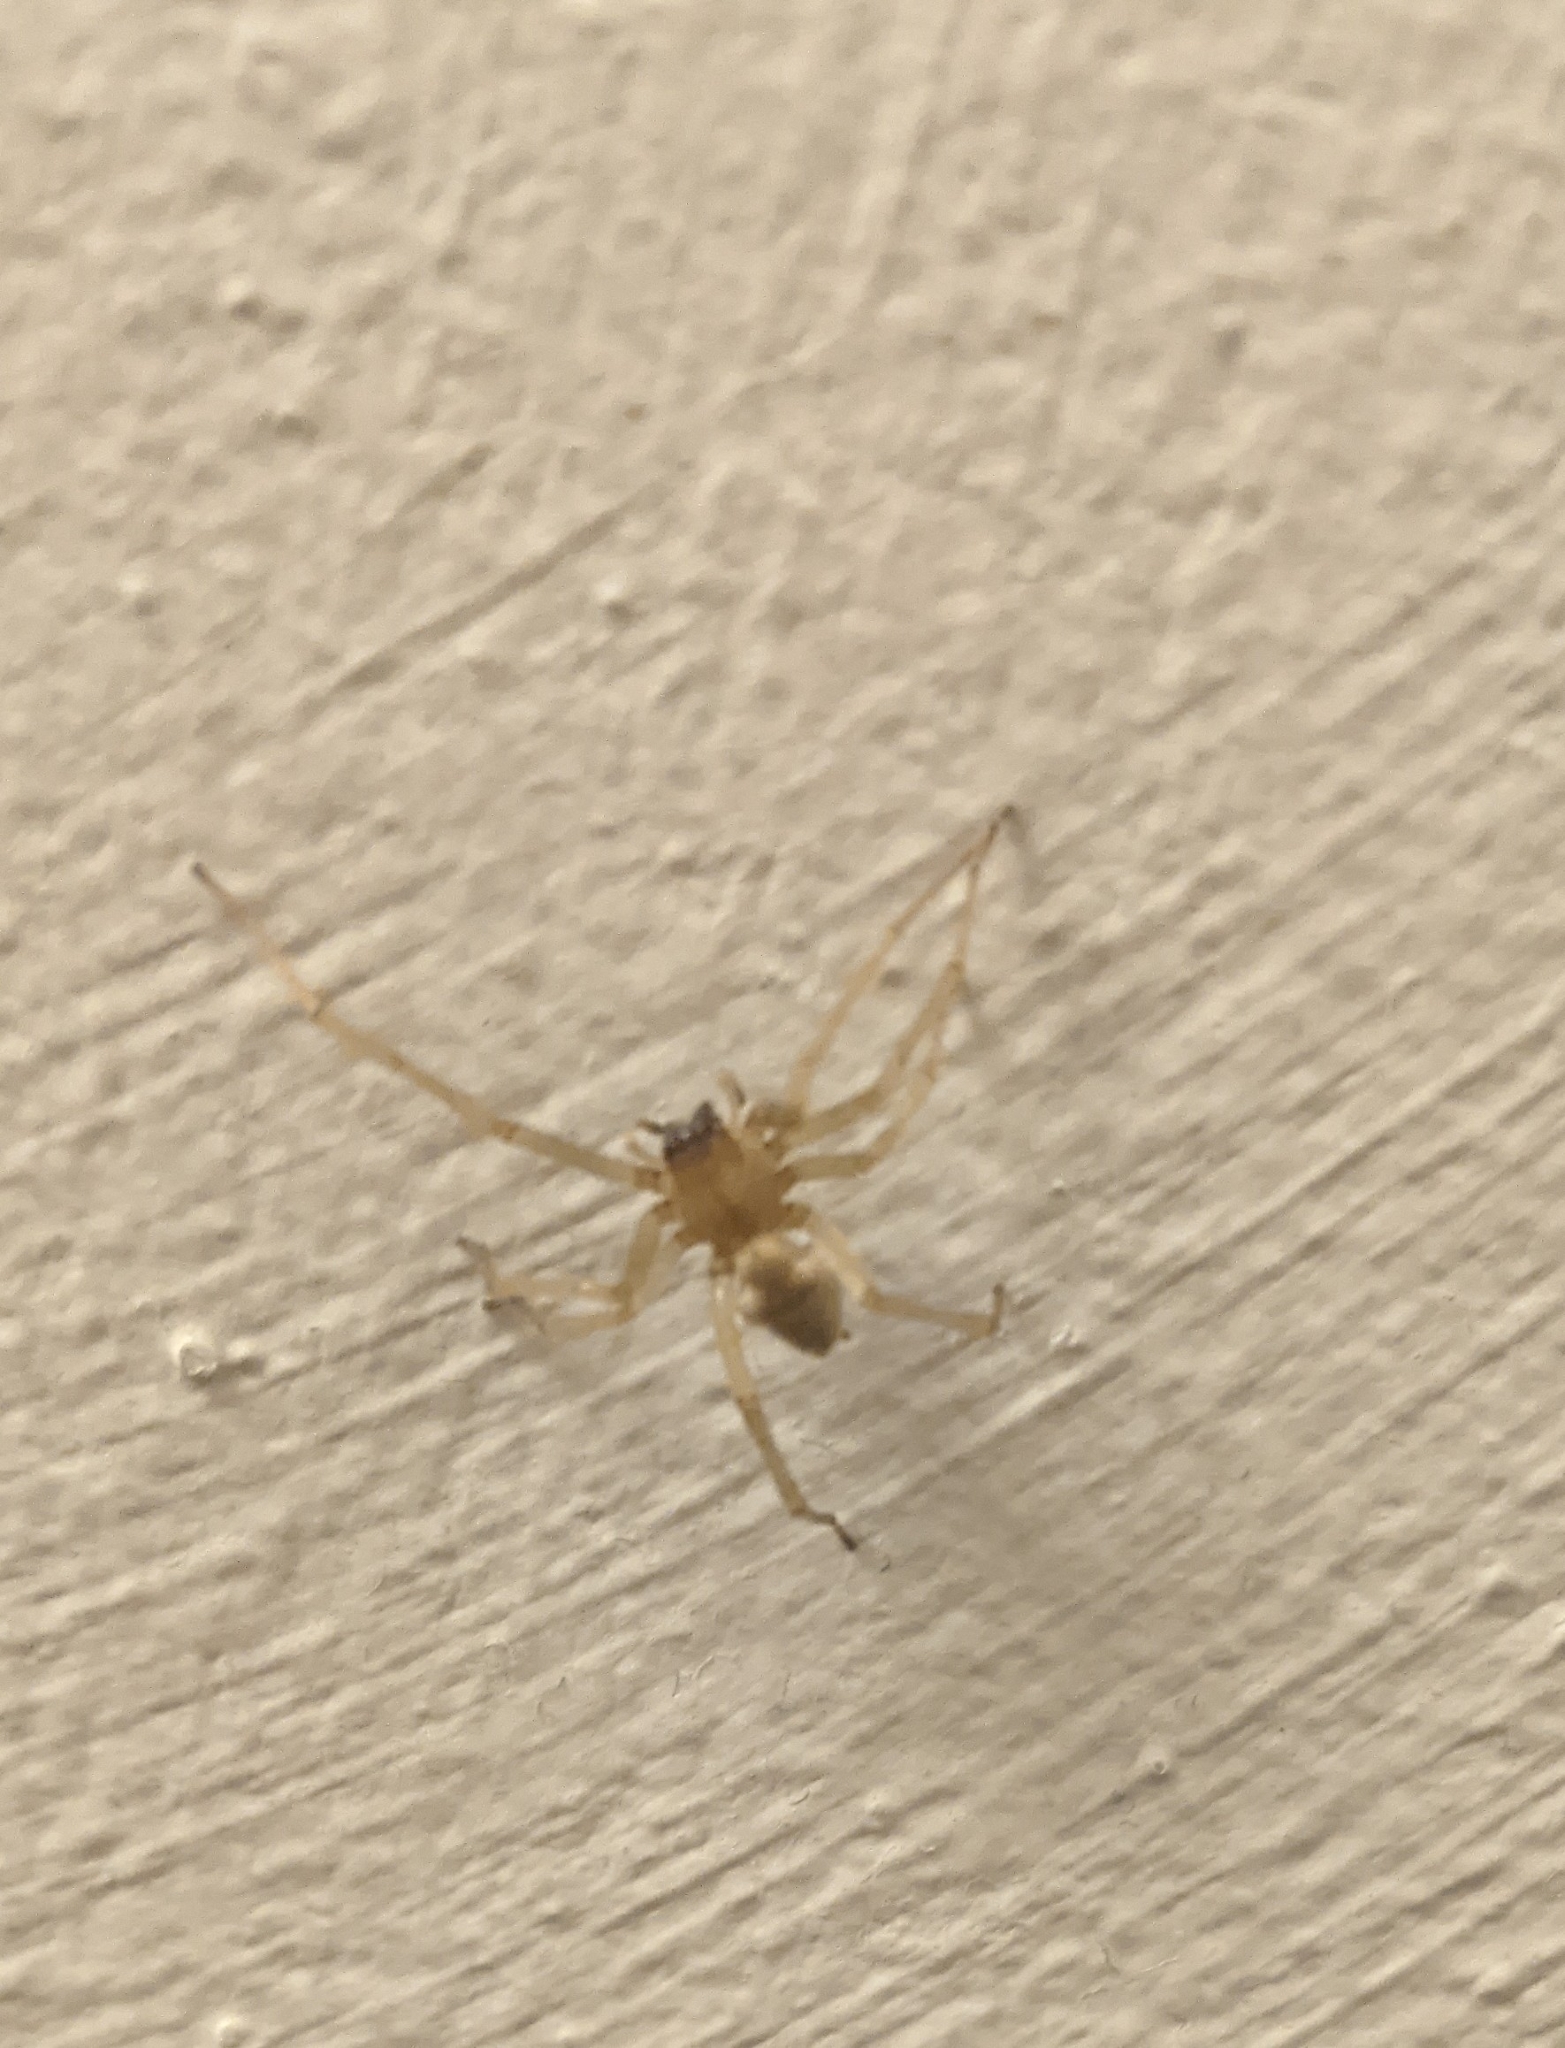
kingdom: Animalia
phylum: Arthropoda
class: Arachnida
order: Araneae
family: Cheiracanthiidae
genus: Cheiracanthium
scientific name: Cheiracanthium mildei
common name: Northern yellow sac spider
